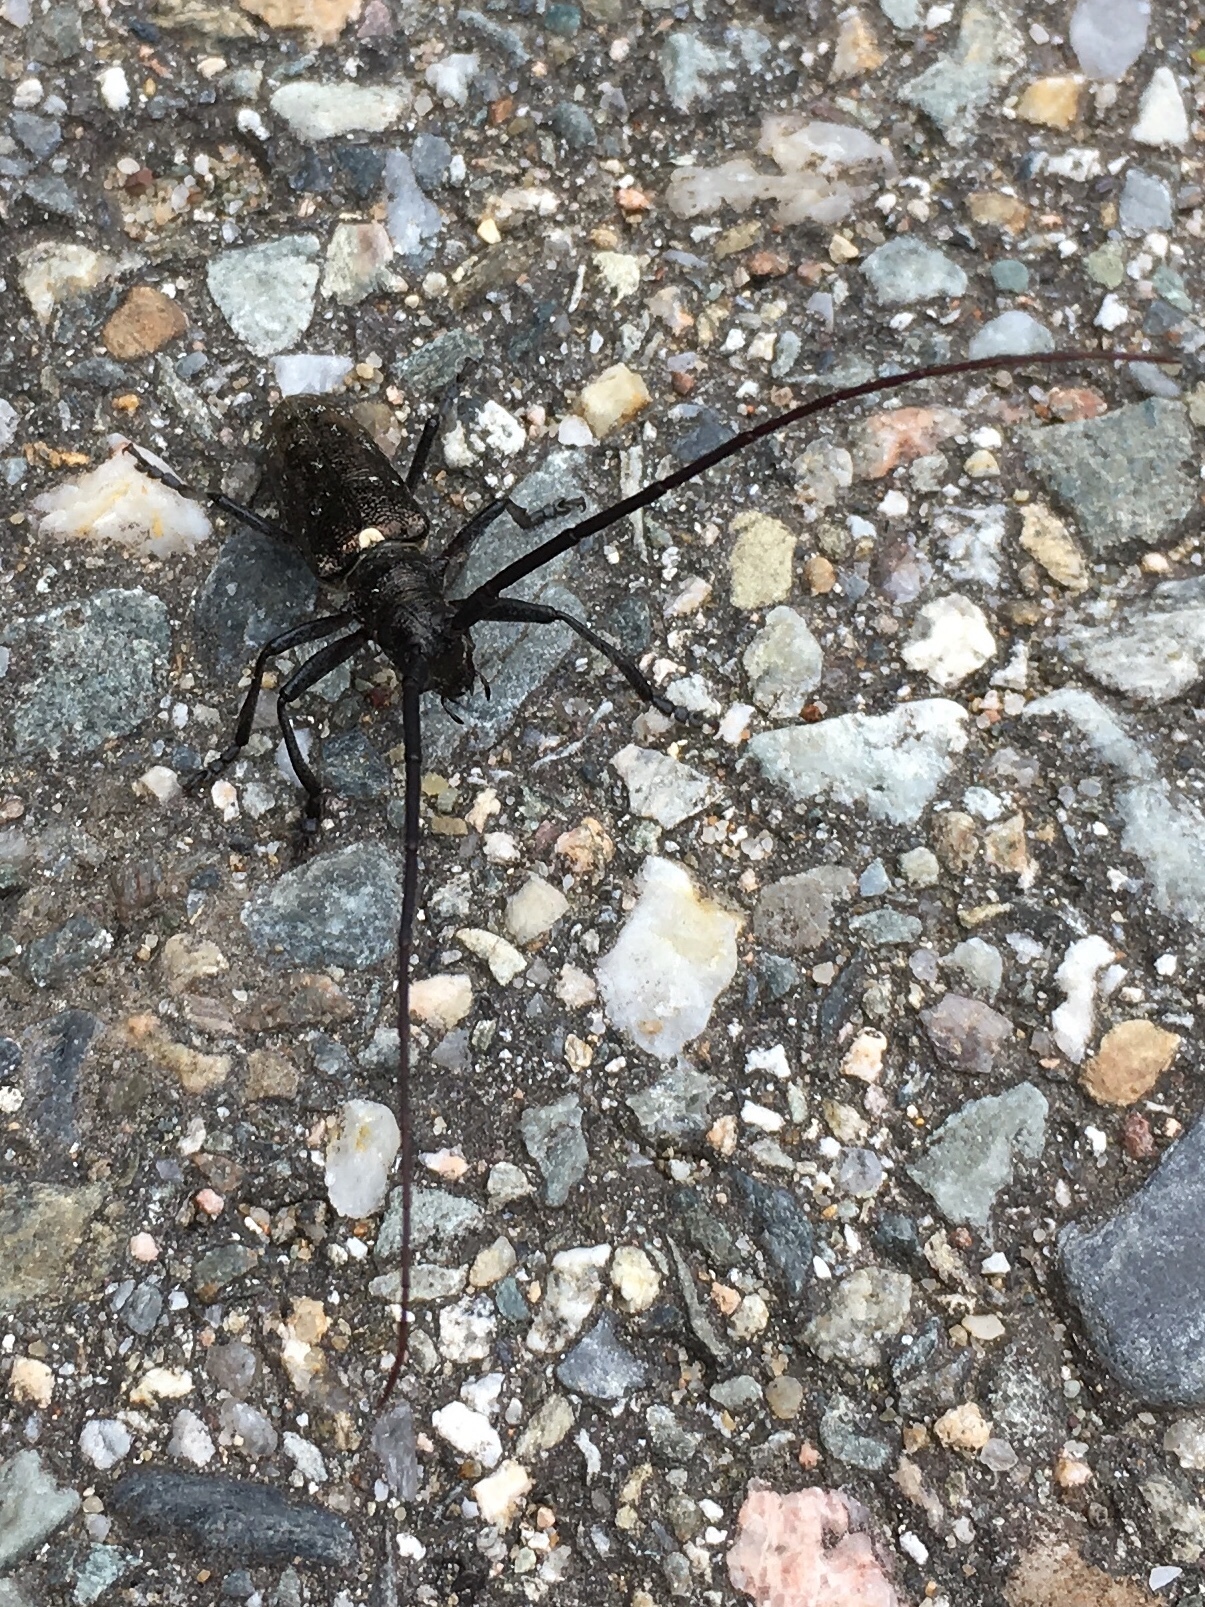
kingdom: Animalia
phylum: Arthropoda
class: Insecta
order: Coleoptera
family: Cerambycidae
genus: Monochamus
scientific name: Monochamus scutellatus
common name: White-spotted sawyer beetle
